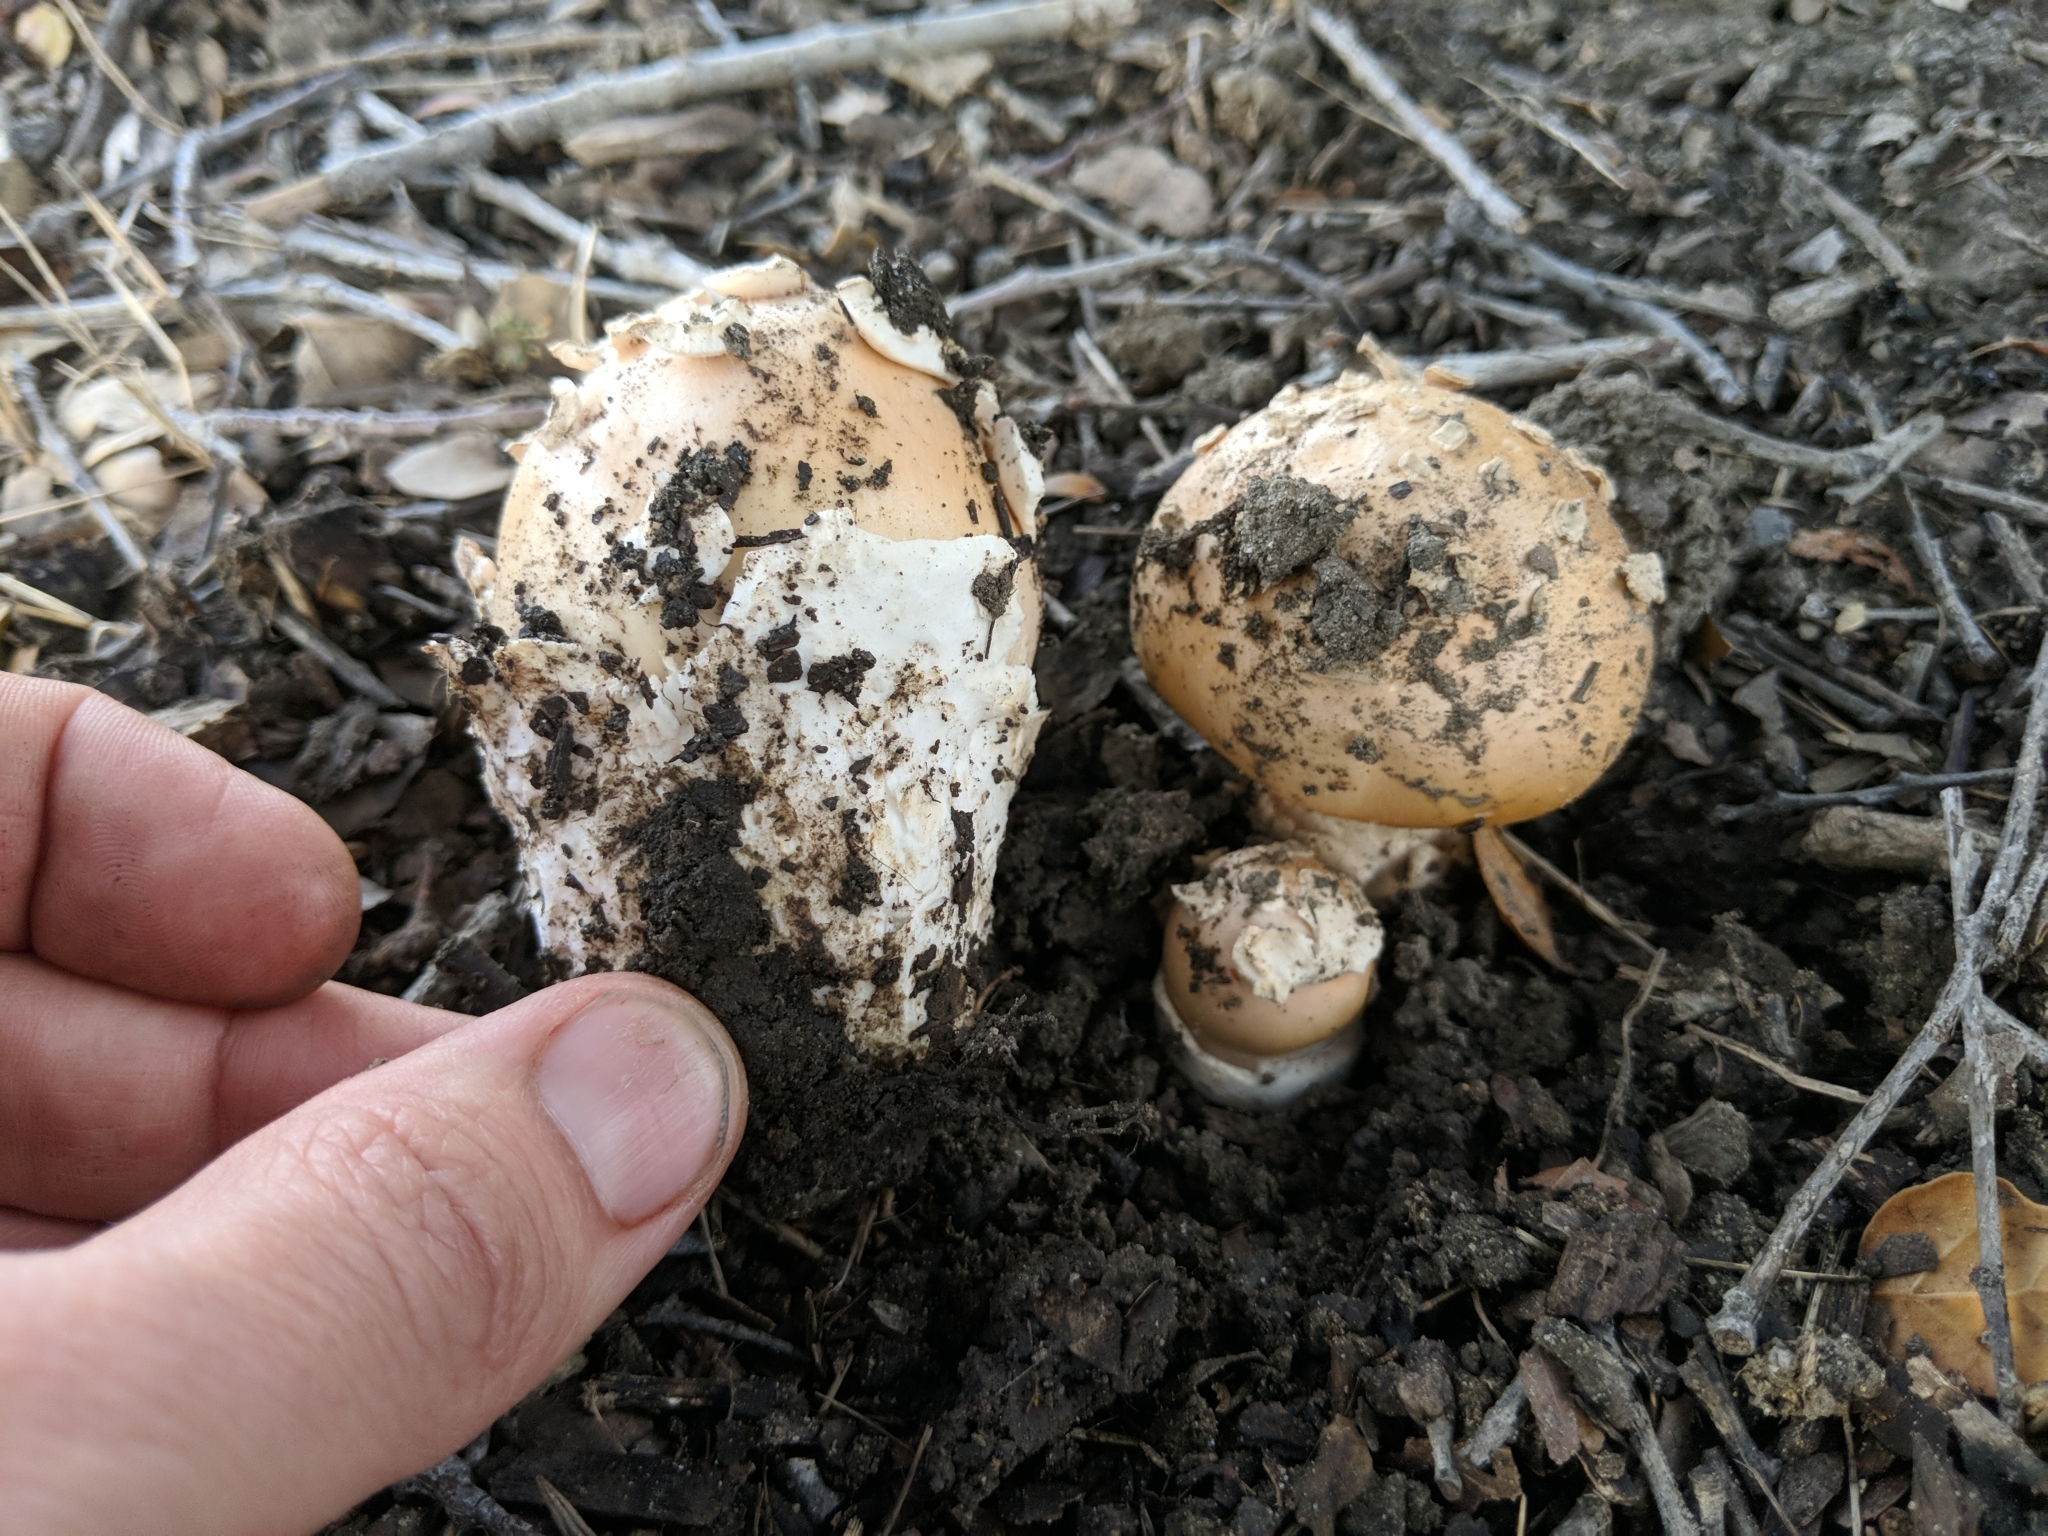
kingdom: Fungi
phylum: Basidiomycota
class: Agaricomycetes
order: Agaricales
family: Amanitaceae
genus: Amanita
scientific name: Amanita velosa
